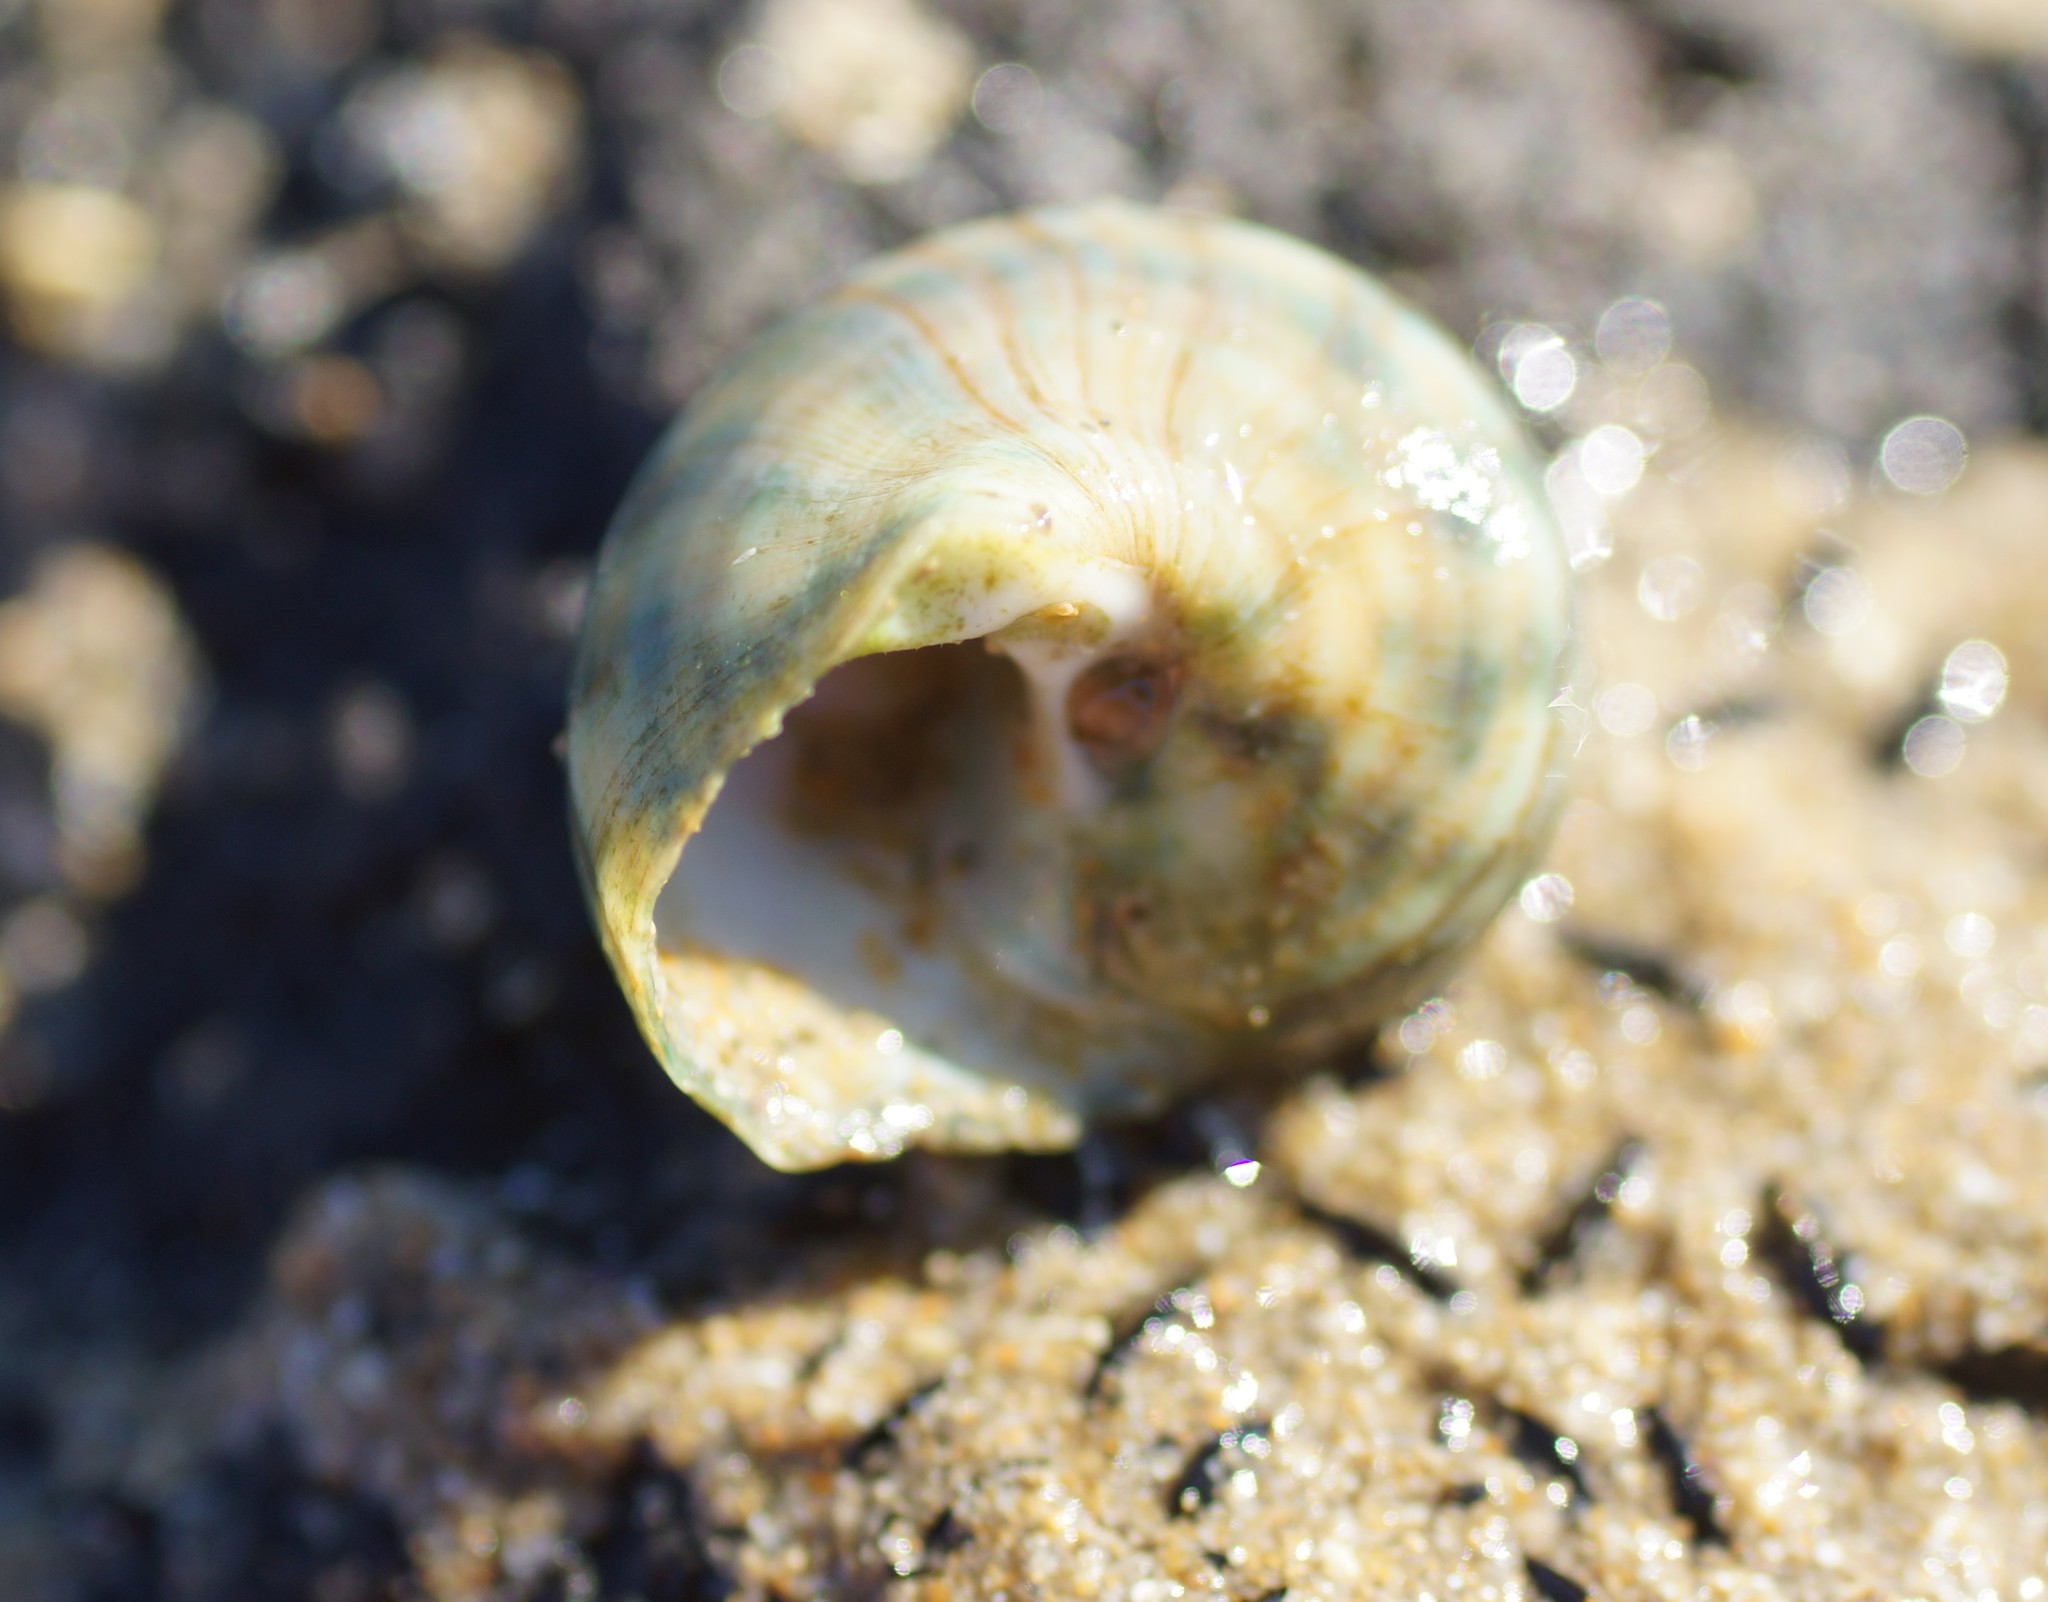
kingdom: Animalia
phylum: Mollusca
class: Gastropoda
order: Trochida
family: Turbinidae
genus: Lunella
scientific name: Lunella undulata
